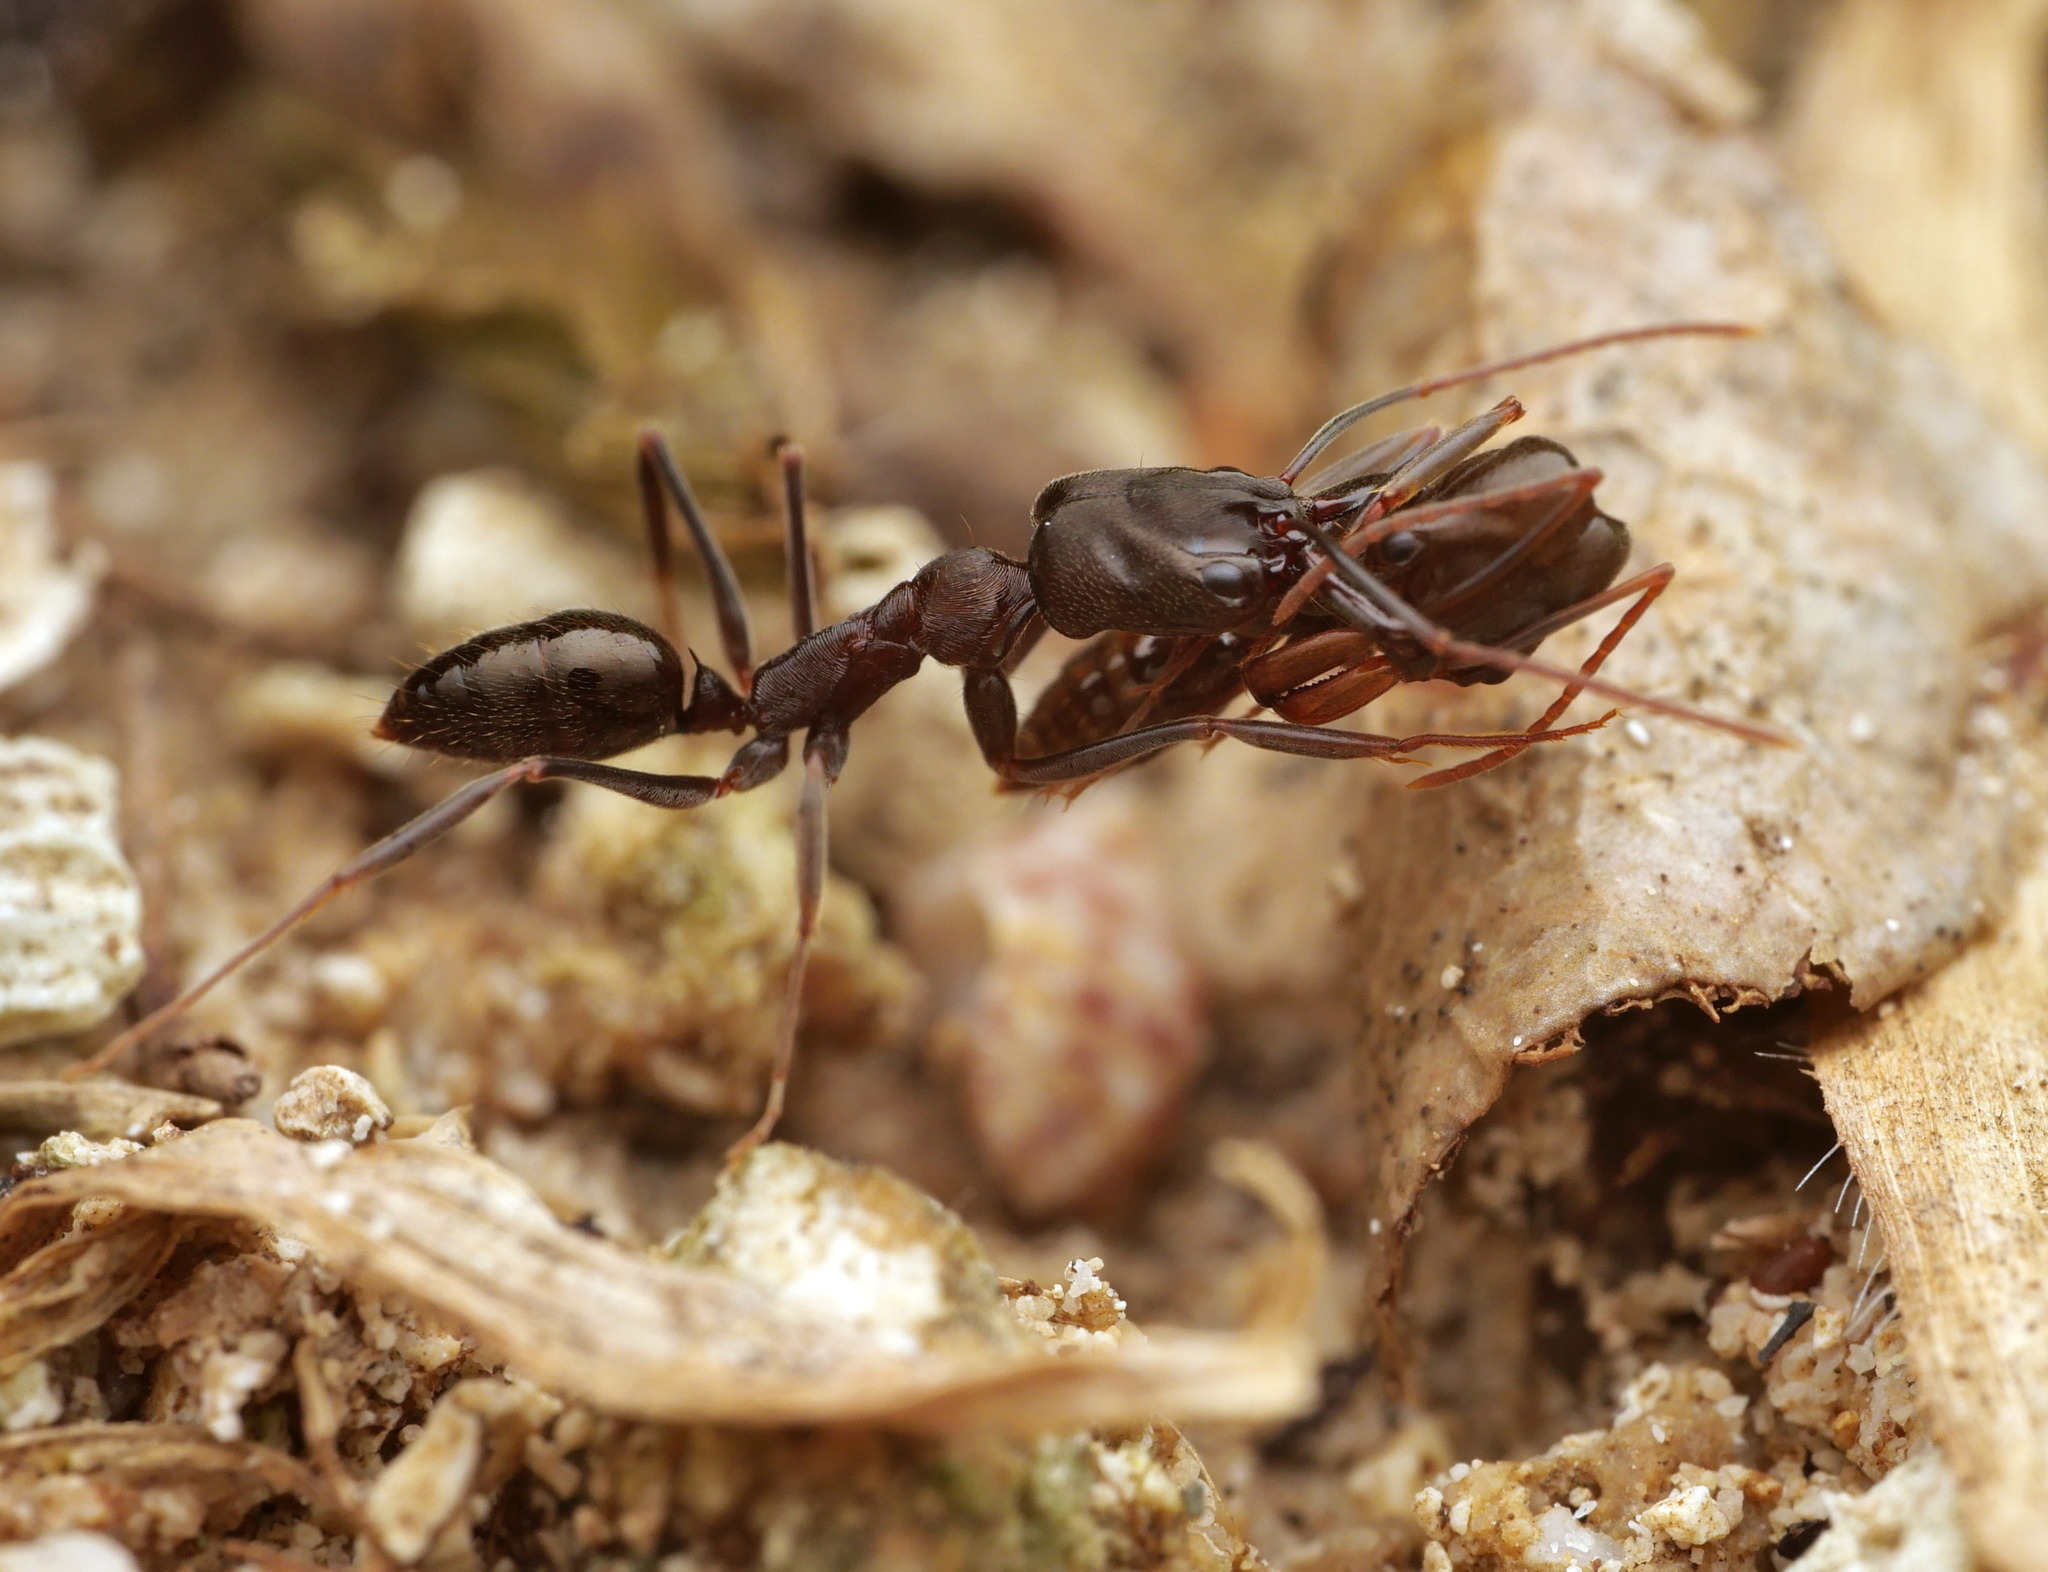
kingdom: Animalia
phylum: Arthropoda
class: Insecta
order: Hymenoptera
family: Formicidae
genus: Odontomachus
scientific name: Odontomachus simillimus
